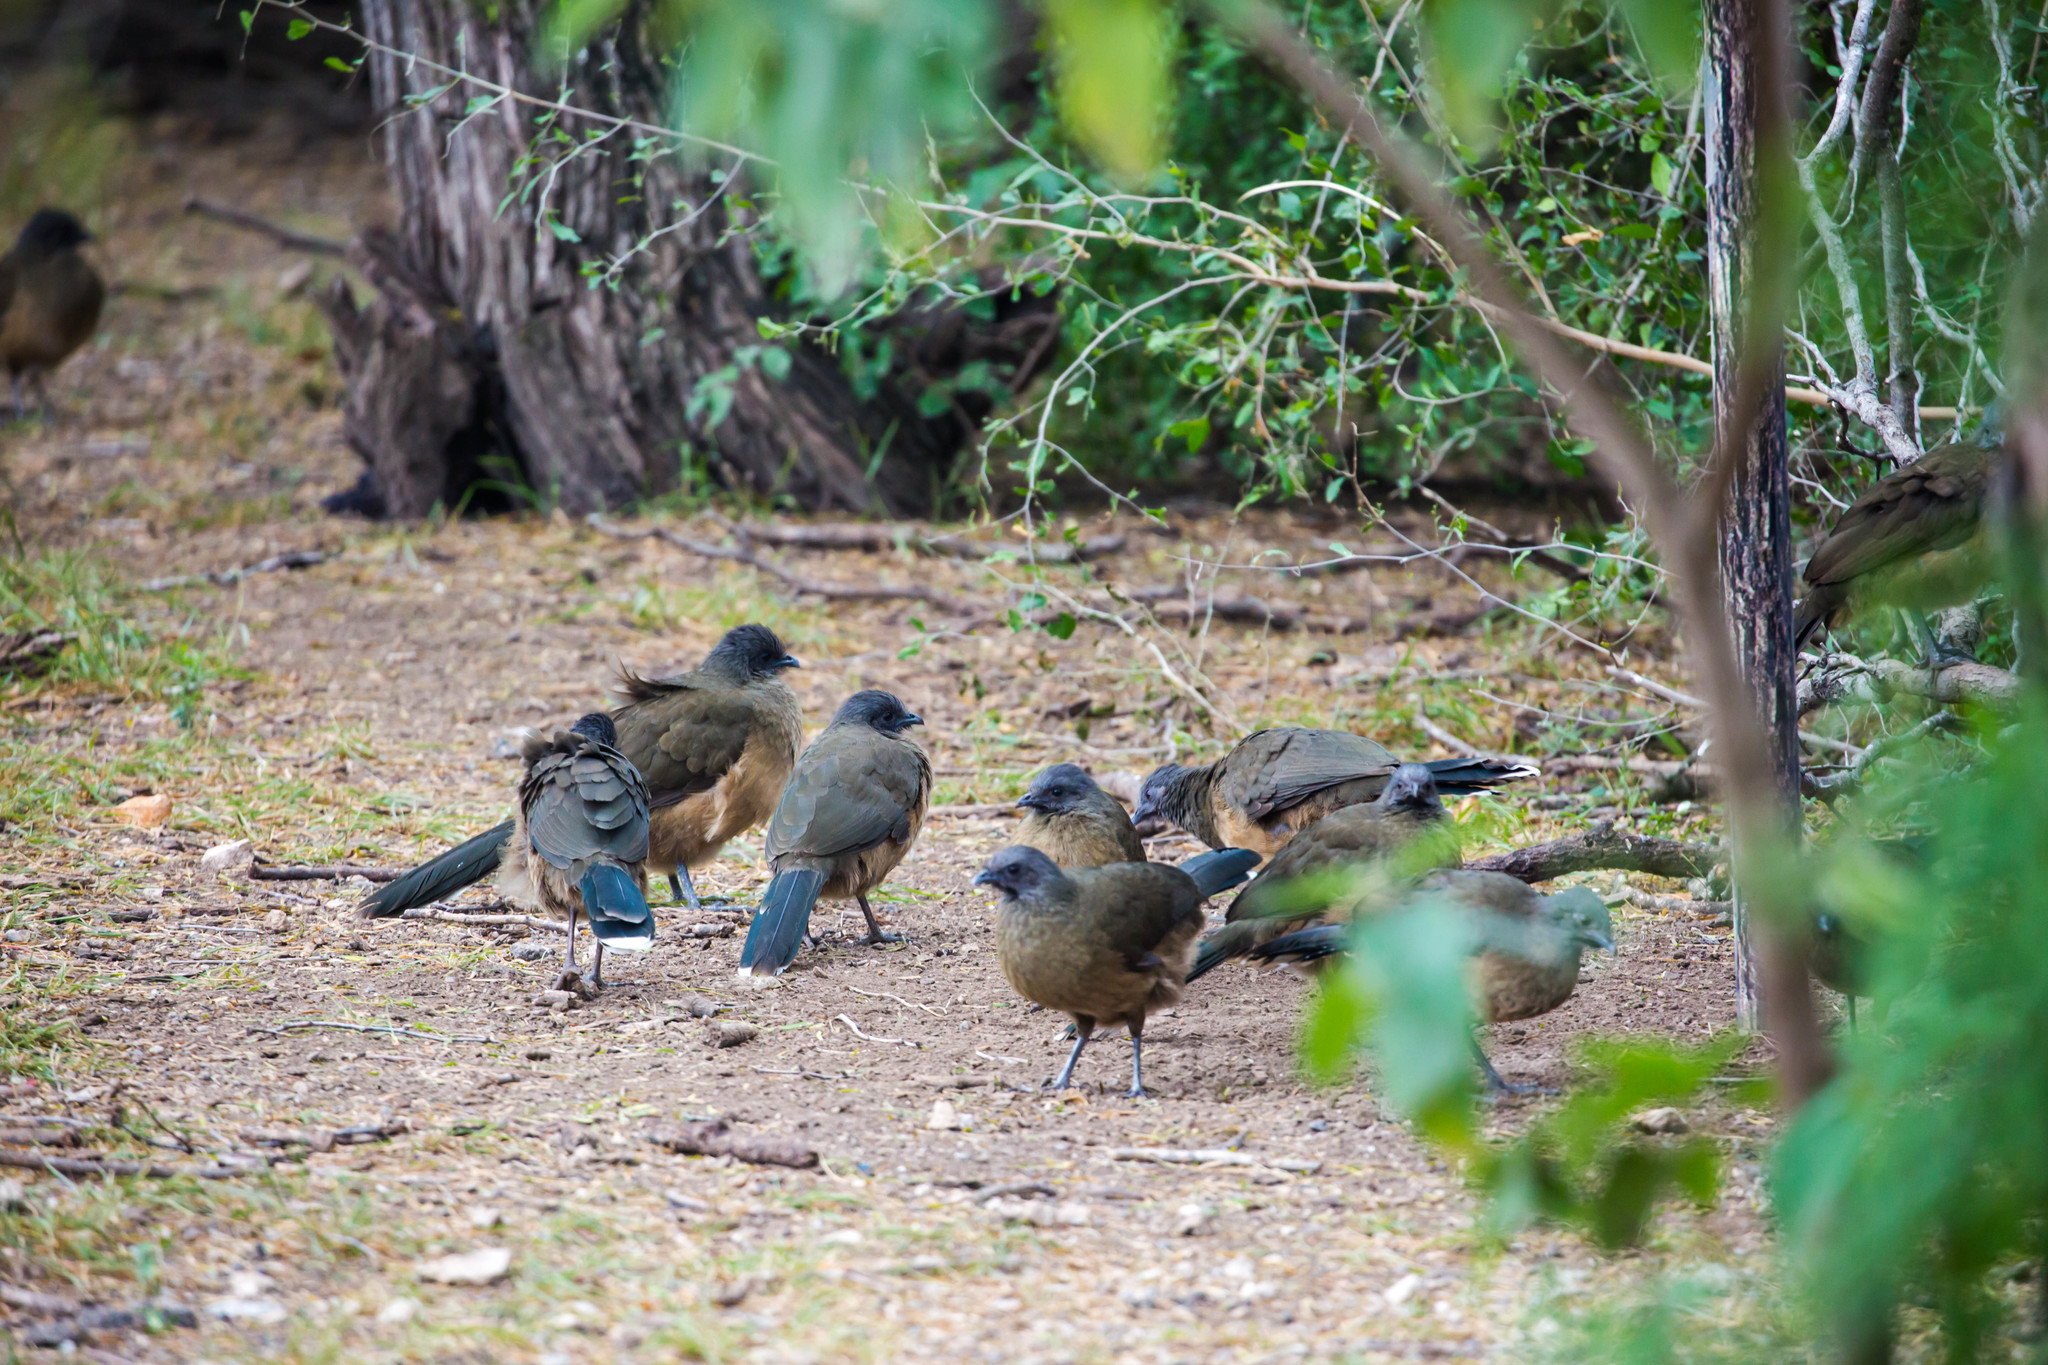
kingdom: Animalia
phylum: Chordata
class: Aves
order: Galliformes
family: Cracidae
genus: Ortalis
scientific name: Ortalis vetula
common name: Plain chachalaca
